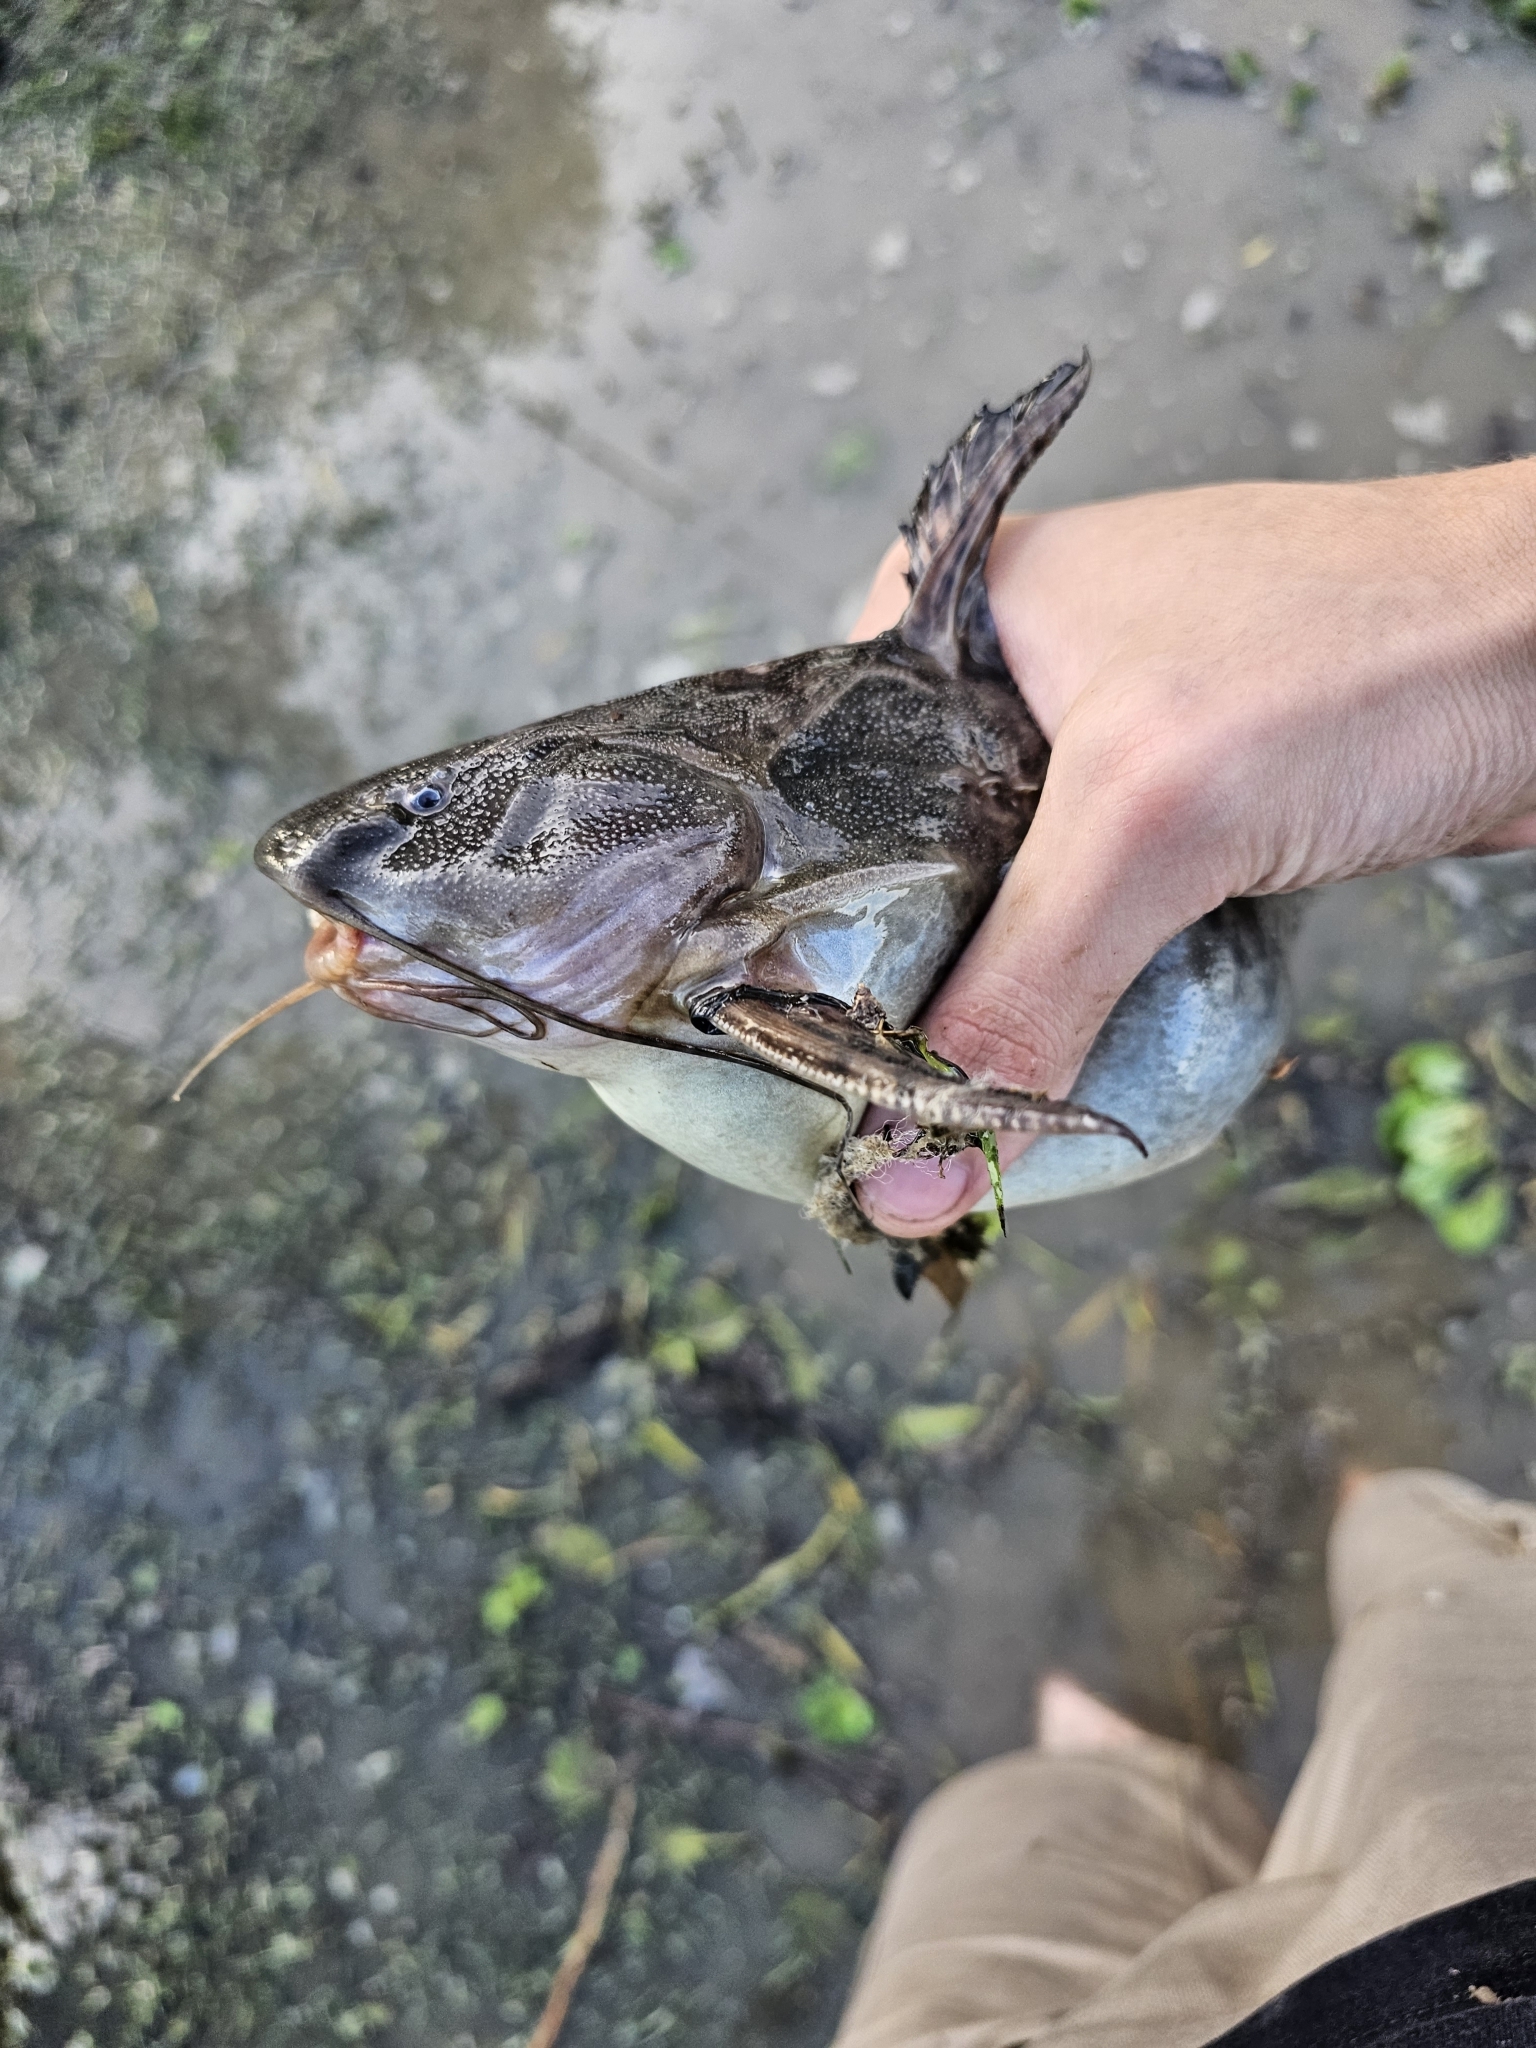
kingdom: Animalia
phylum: Chordata
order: Siluriformes
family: Doradidae
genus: Pterodoras
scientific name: Pterodoras granulosus
